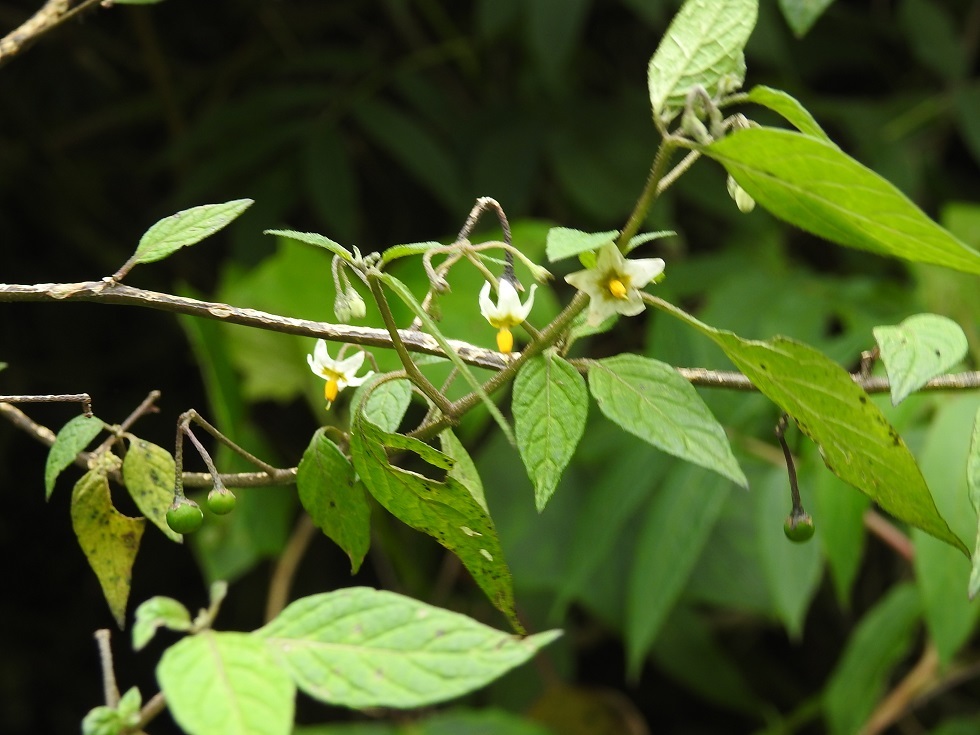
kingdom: Plantae
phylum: Tracheophyta
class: Magnoliopsida
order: Solanales
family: Solanaceae
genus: Solanum
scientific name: Solanum nigrescens
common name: Divine nightshade
